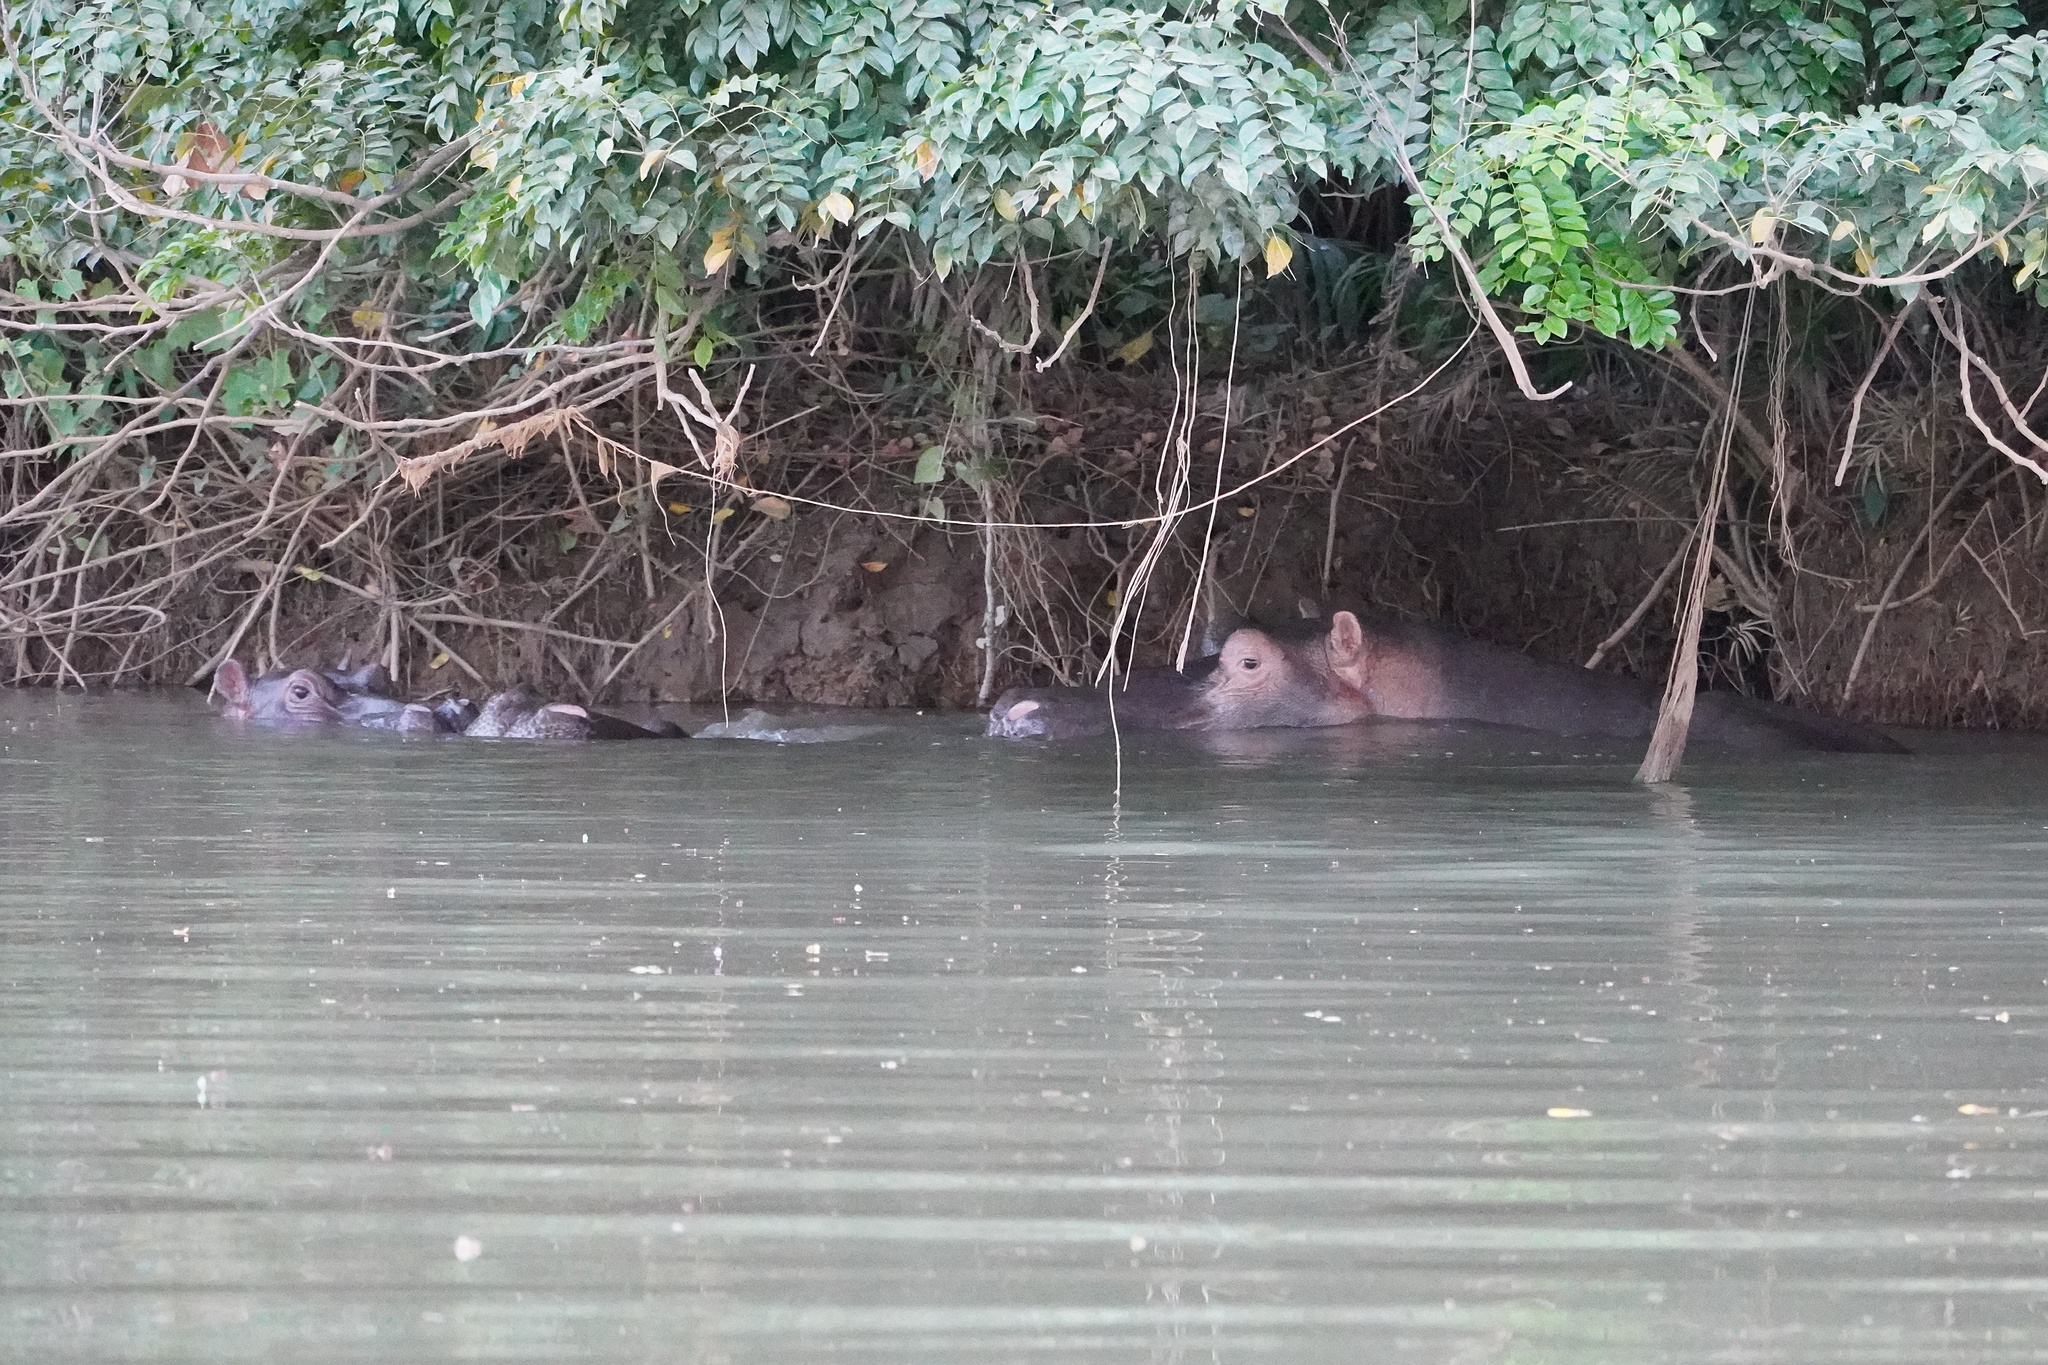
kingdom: Animalia
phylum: Chordata
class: Mammalia
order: Artiodactyla
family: Hippopotamidae
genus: Hippopotamus
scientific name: Hippopotamus amphibius
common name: Common hippopotamus
